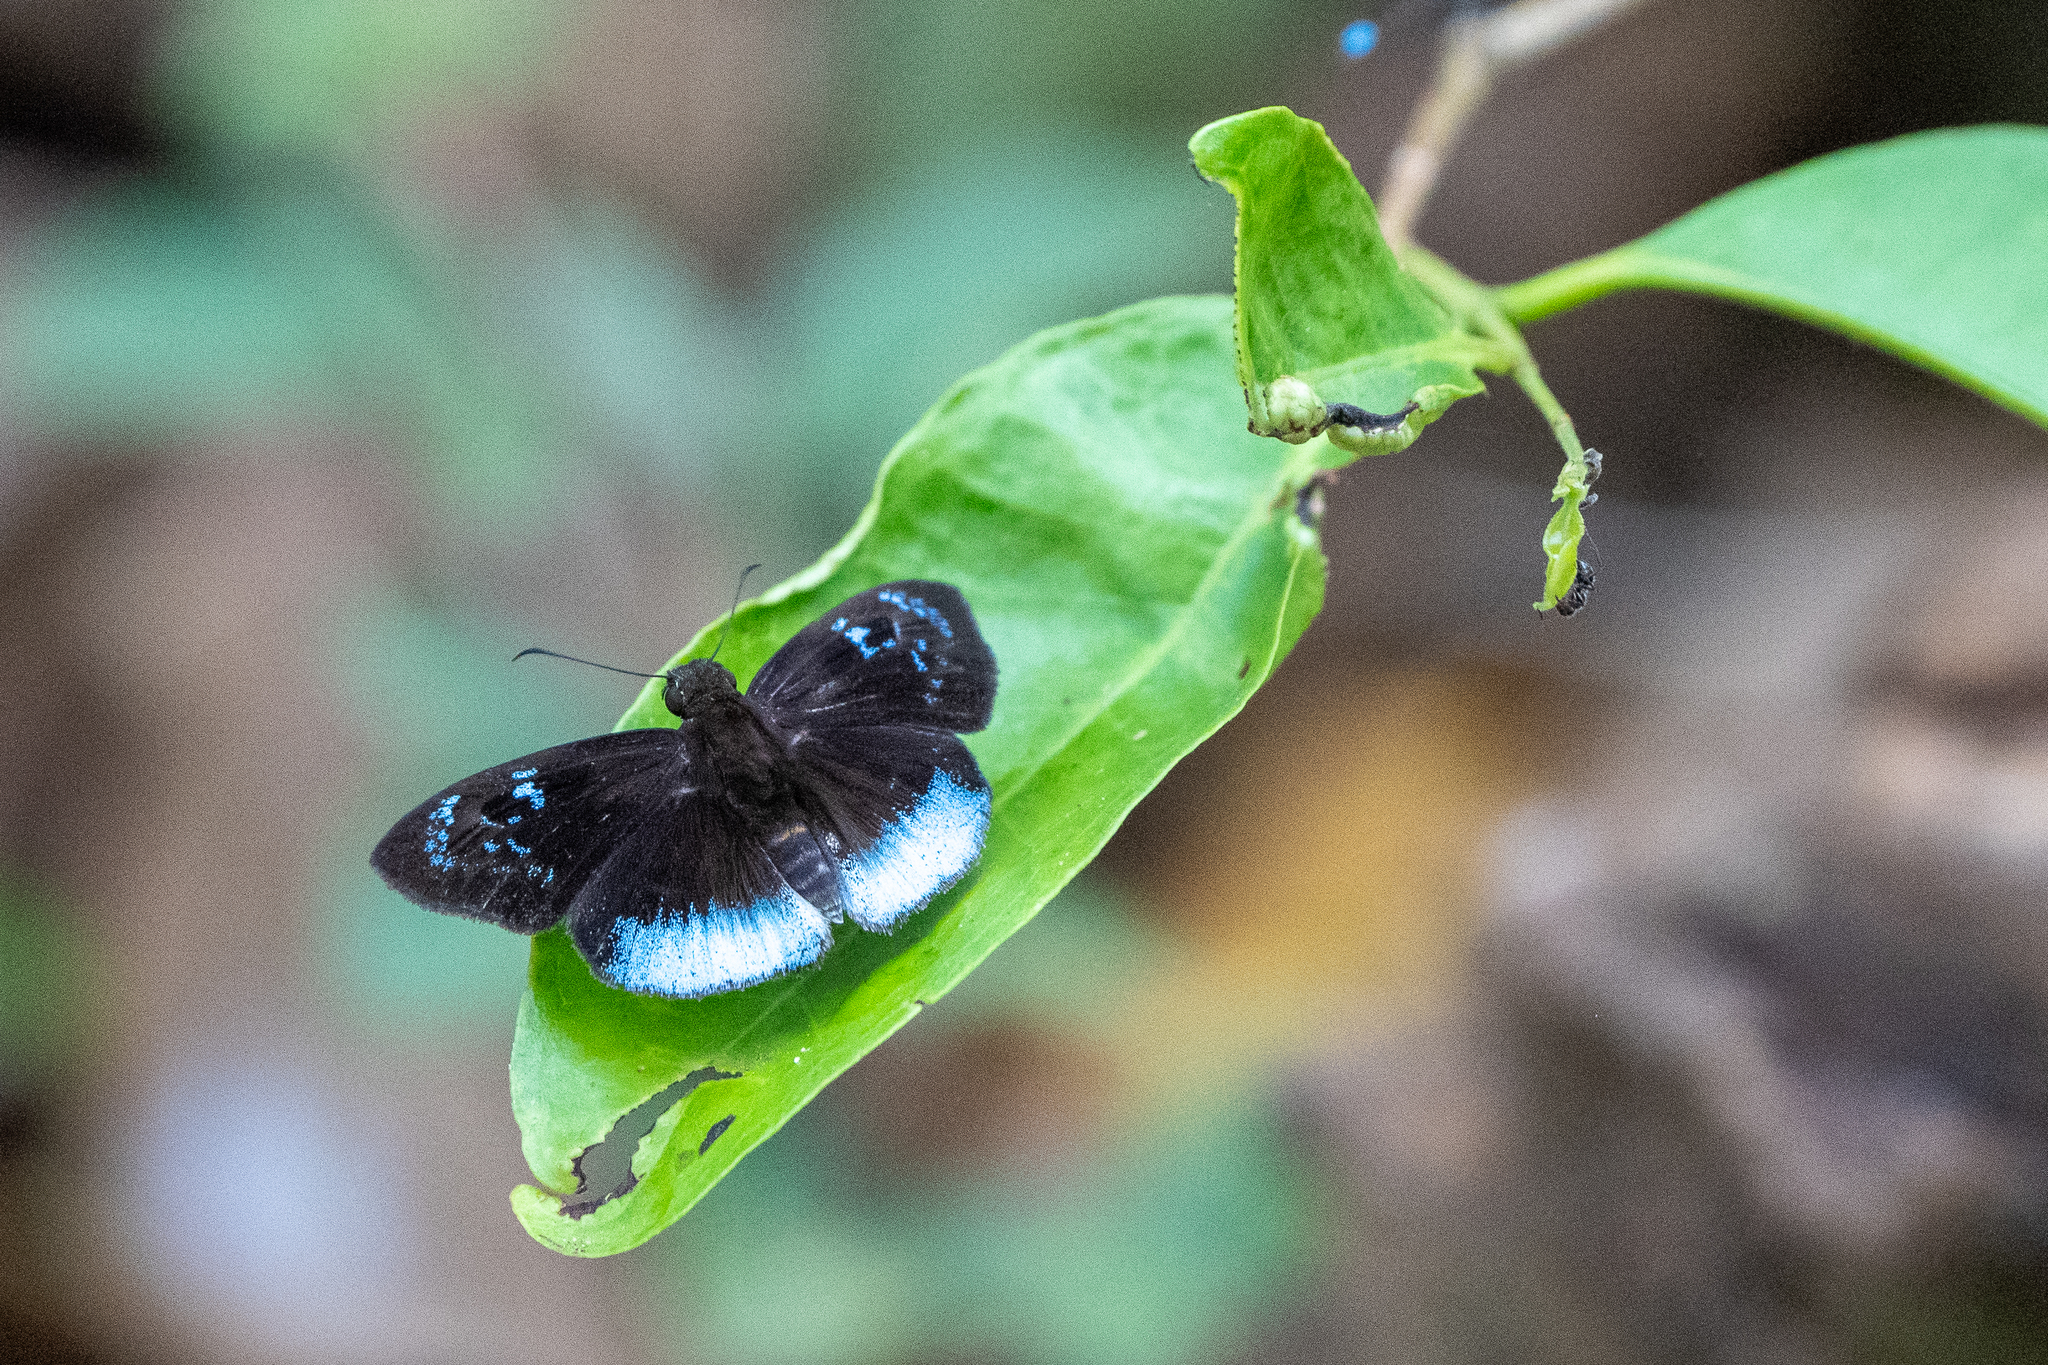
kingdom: Animalia
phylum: Arthropoda
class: Insecta
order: Lepidoptera
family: Hesperiidae
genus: Pythonides
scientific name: Pythonides pteras
